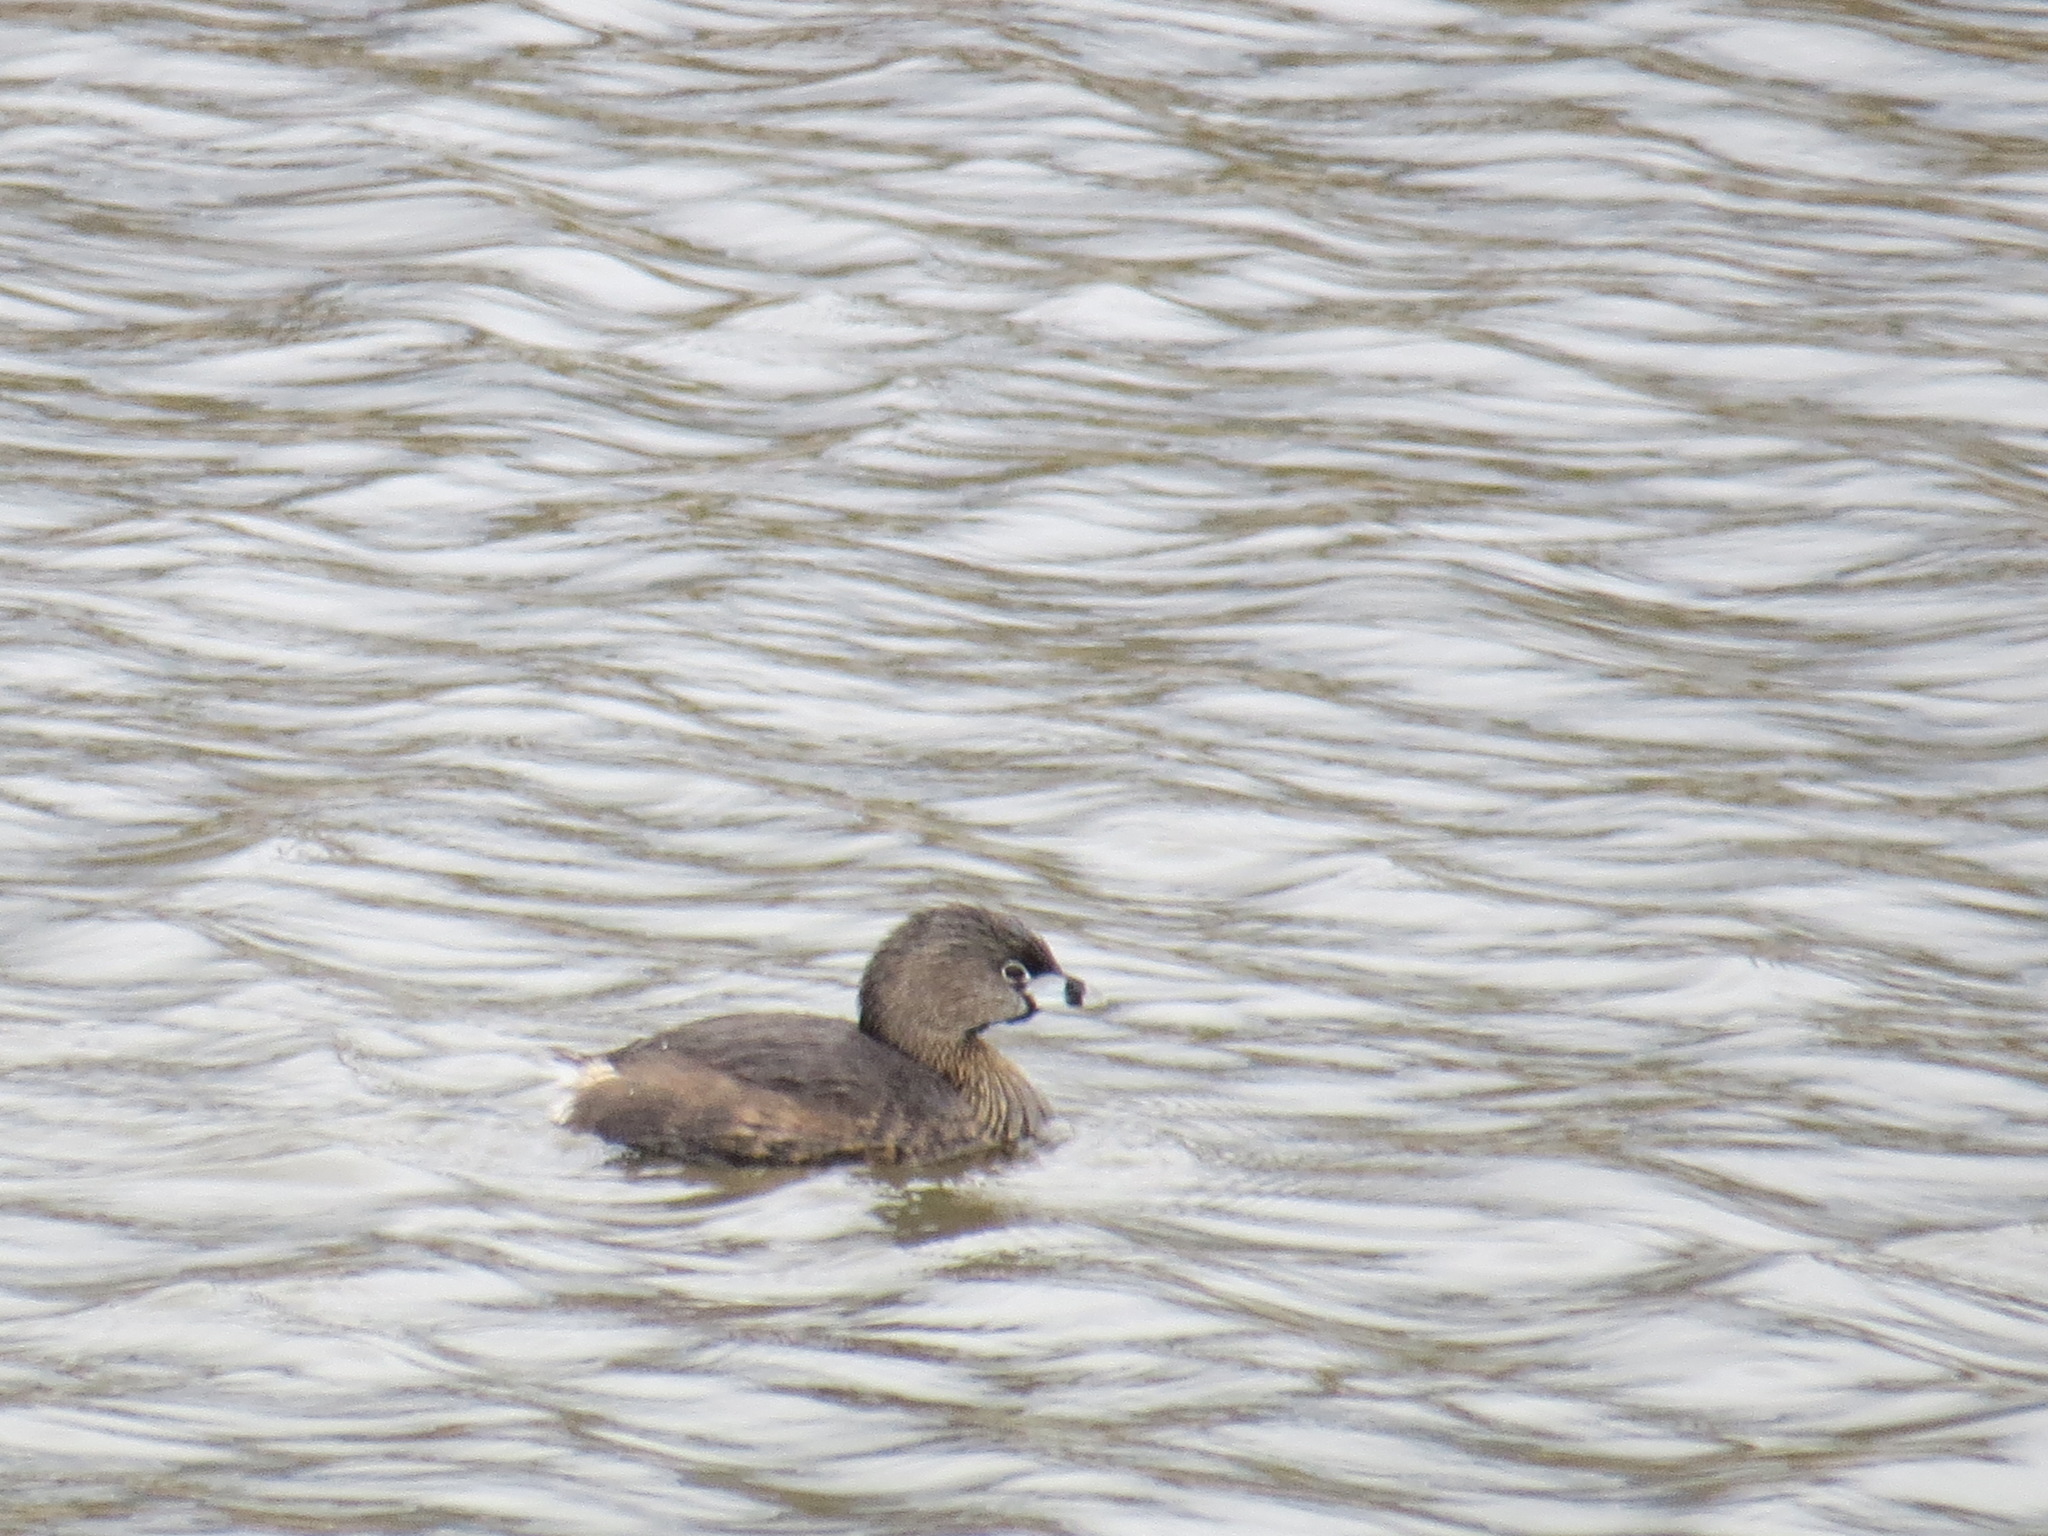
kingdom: Animalia
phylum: Chordata
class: Aves
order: Podicipediformes
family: Podicipedidae
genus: Podilymbus
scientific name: Podilymbus podiceps
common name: Pied-billed grebe
